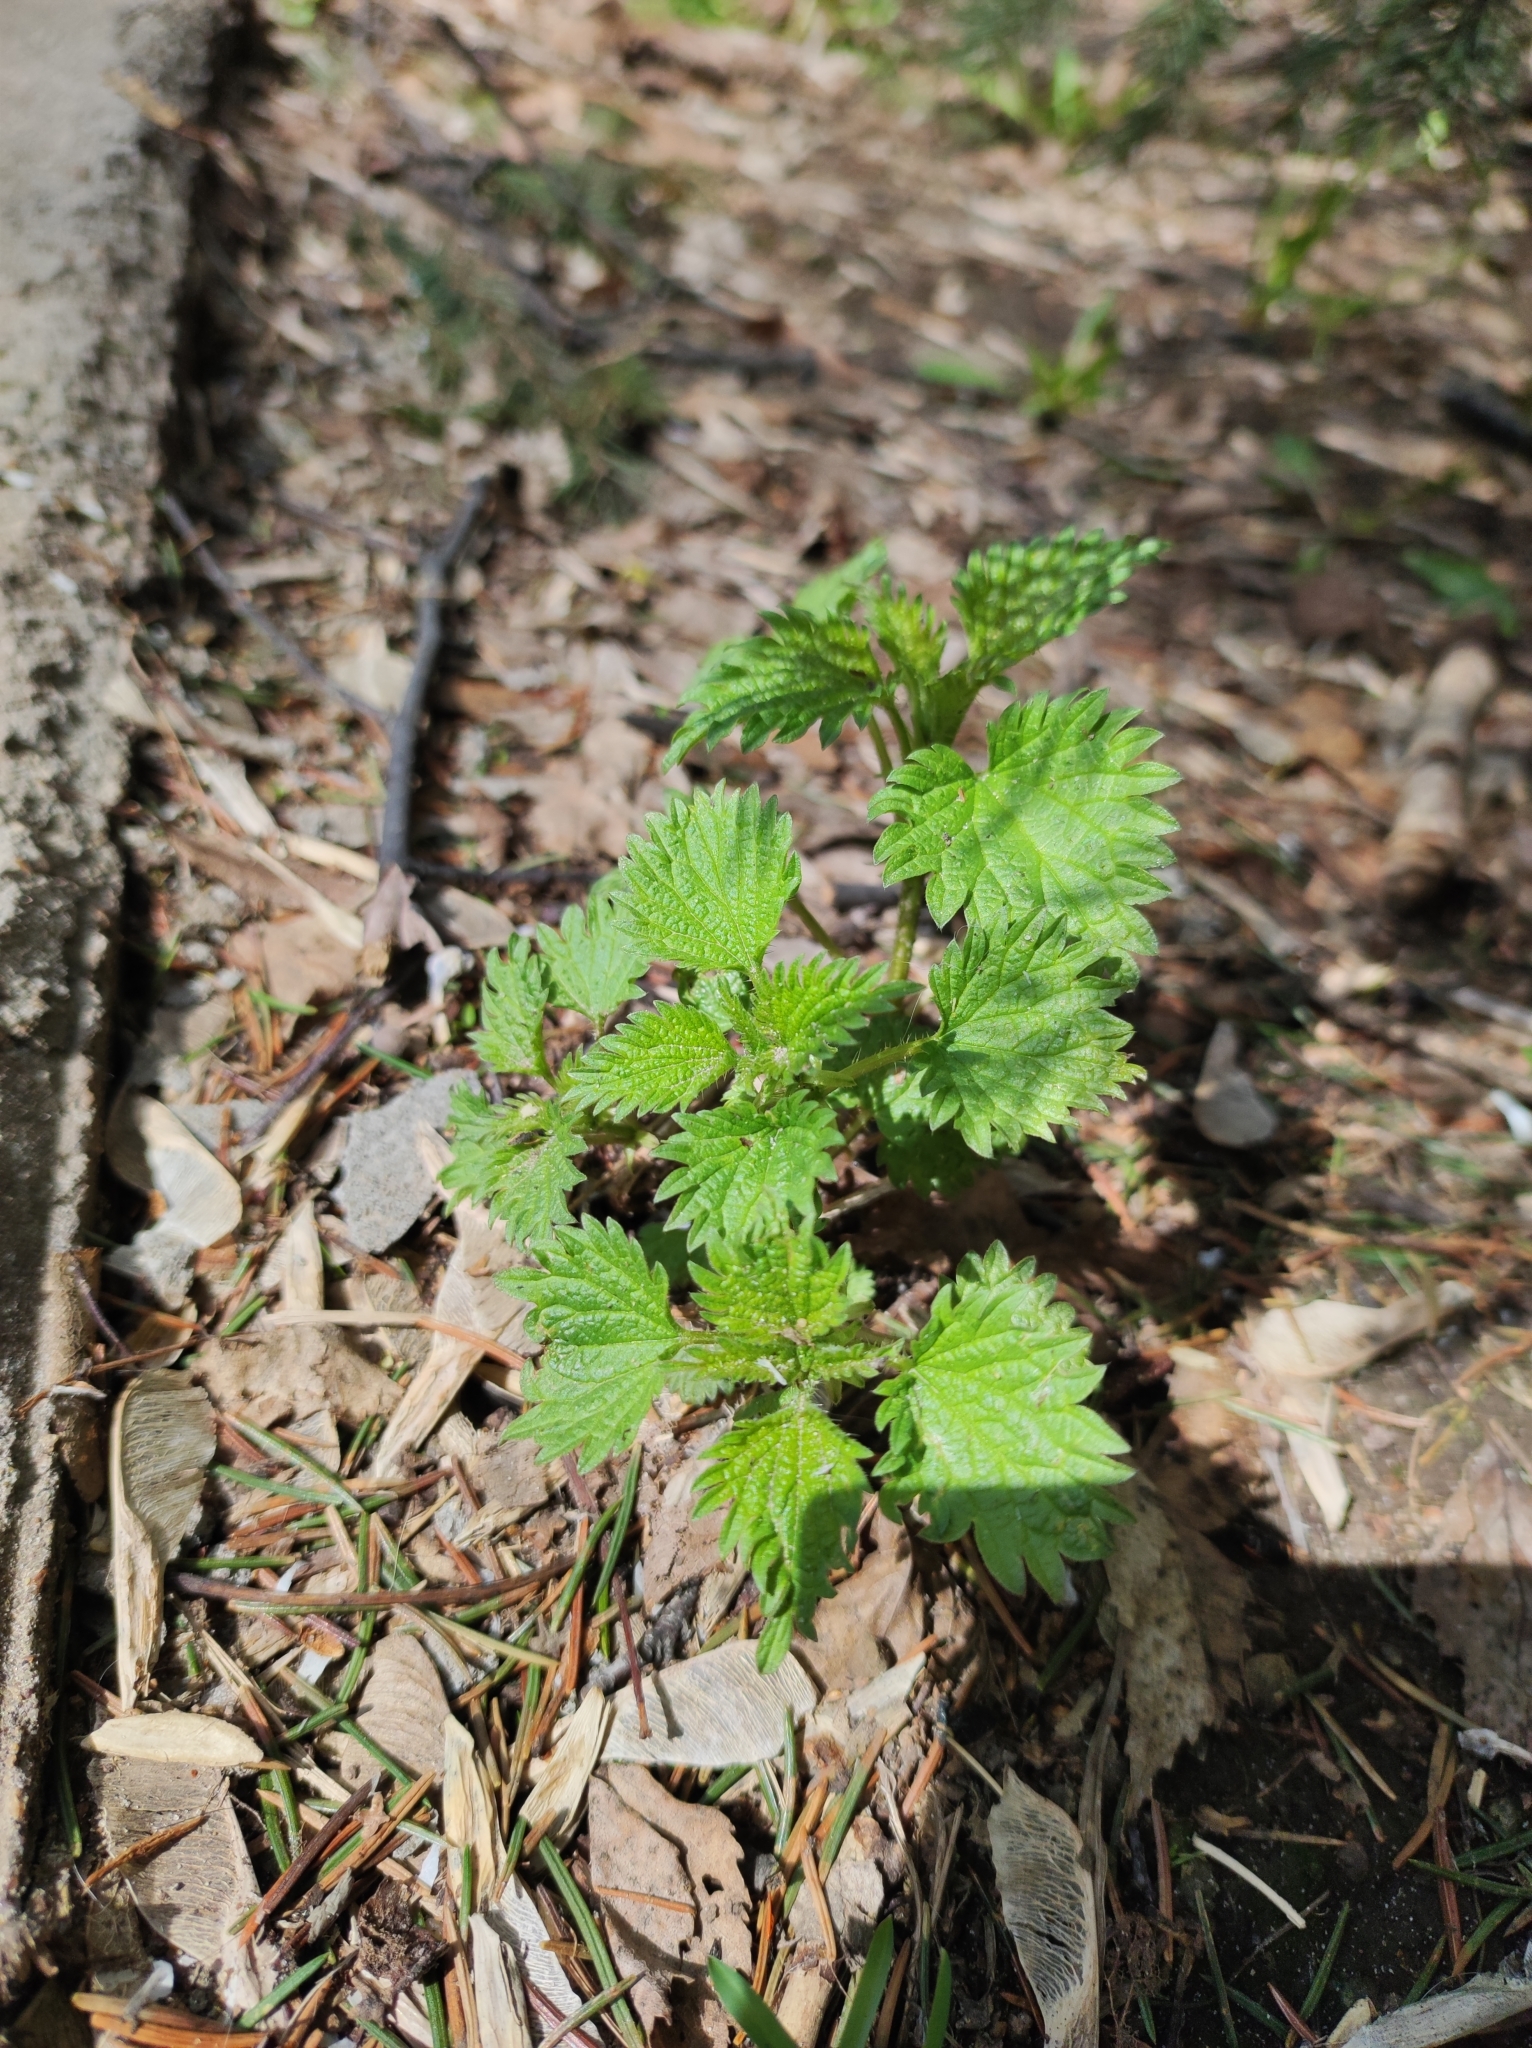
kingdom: Plantae
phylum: Tracheophyta
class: Magnoliopsida
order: Rosales
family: Urticaceae
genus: Urtica
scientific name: Urtica dioica
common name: Common nettle
